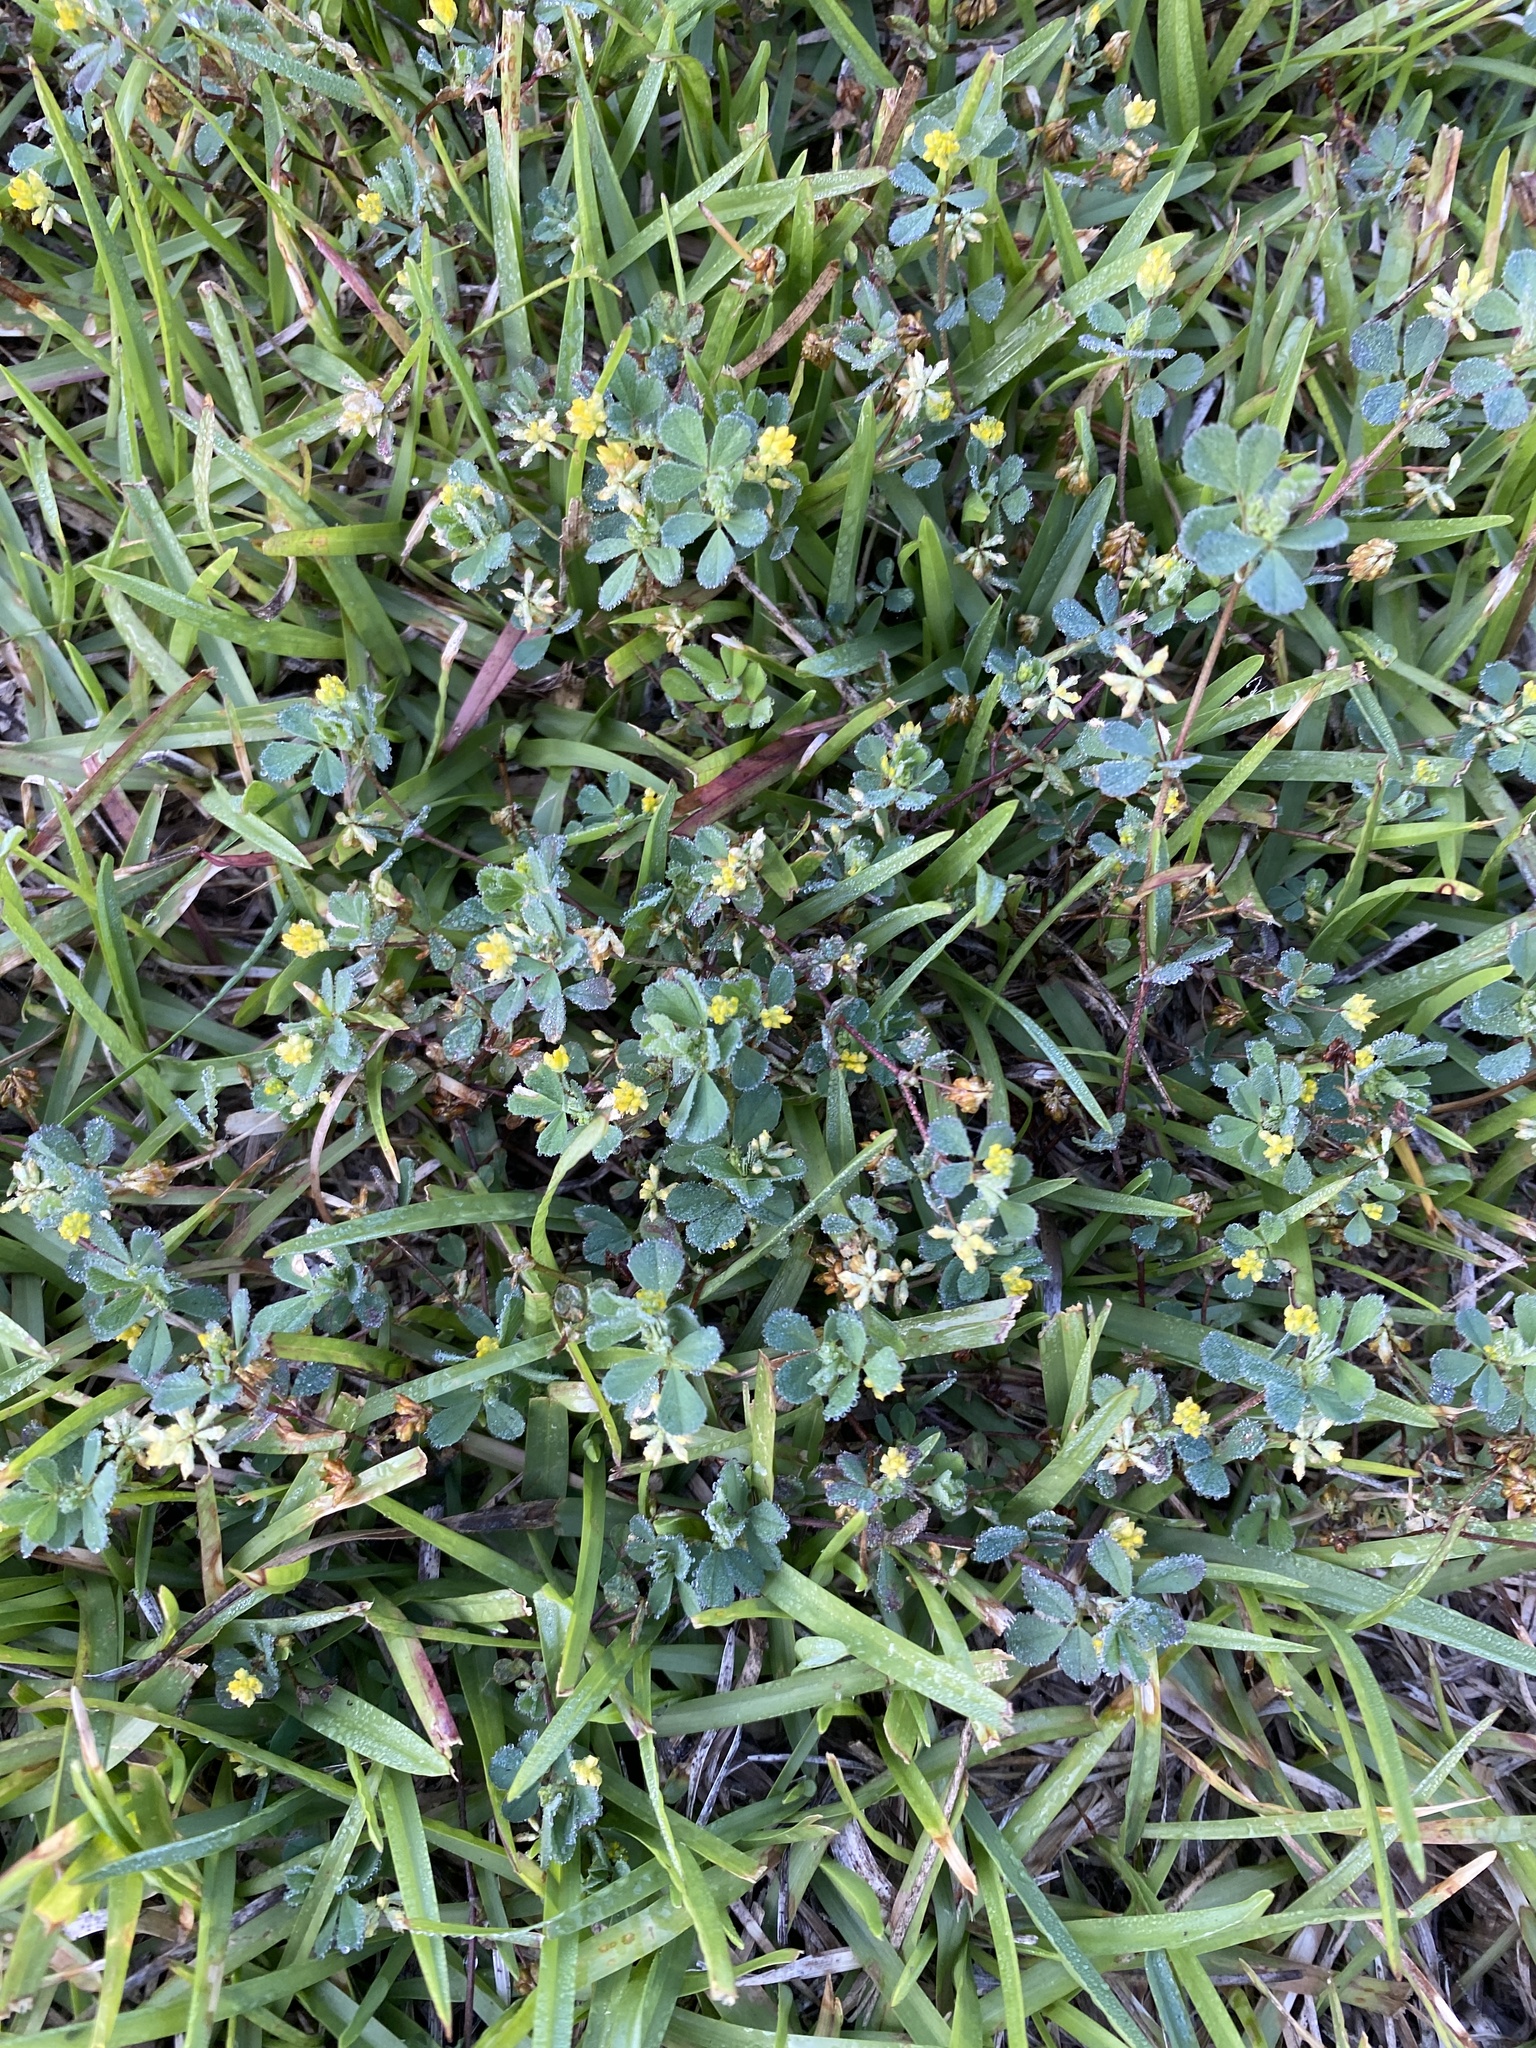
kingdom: Plantae
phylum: Tracheophyta
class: Magnoliopsida
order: Fabales
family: Fabaceae
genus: Trifolium
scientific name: Trifolium dubium
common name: Suckling clover
